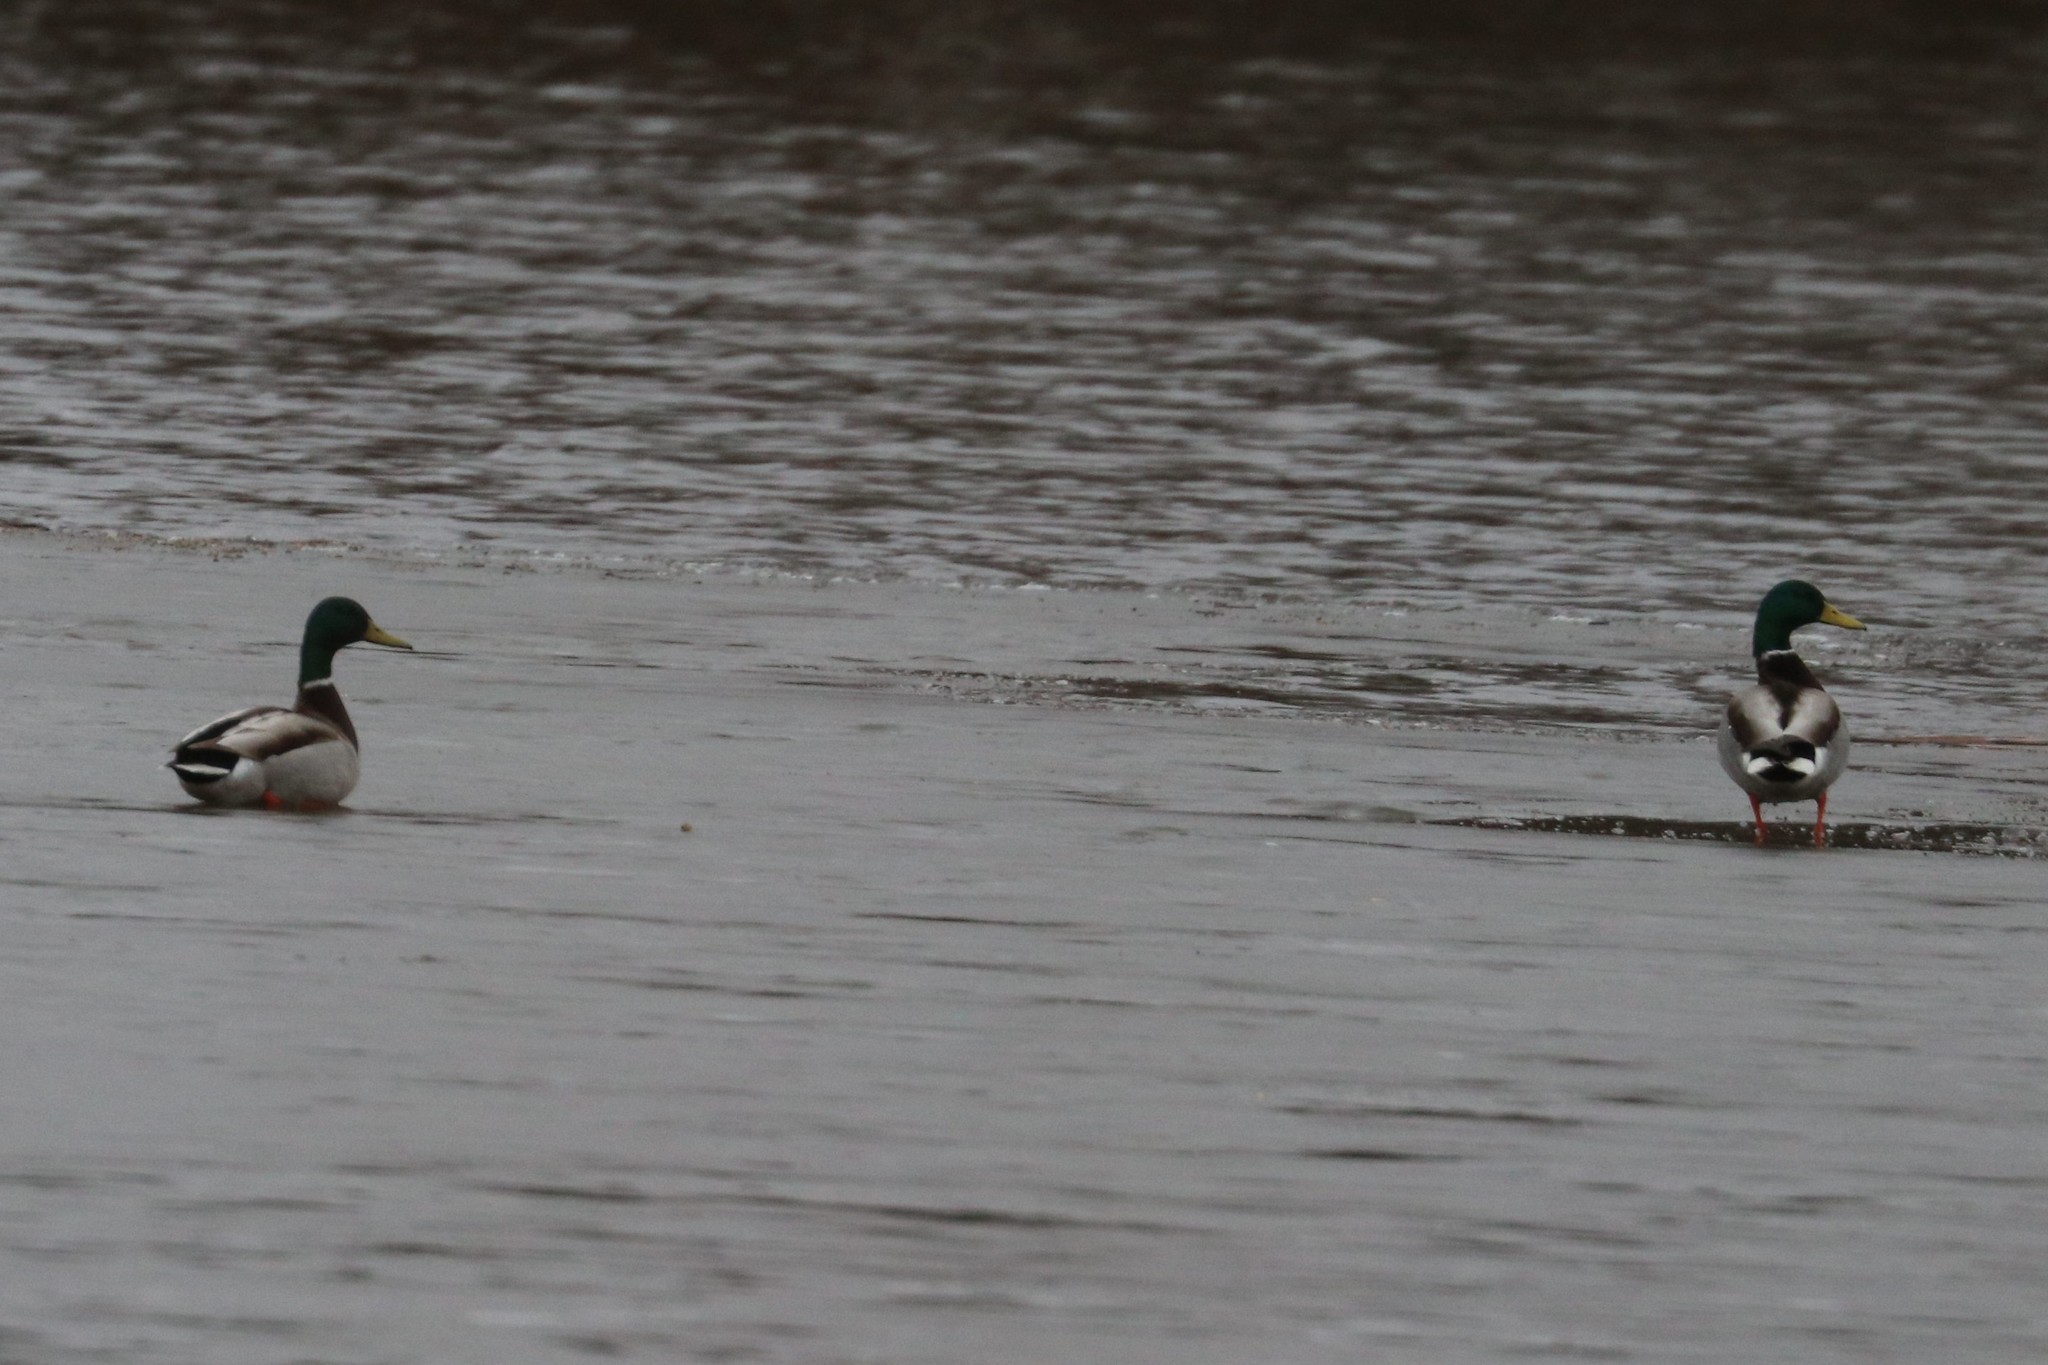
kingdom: Animalia
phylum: Chordata
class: Aves
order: Anseriformes
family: Anatidae
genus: Anas
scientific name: Anas platyrhynchos
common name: Mallard
